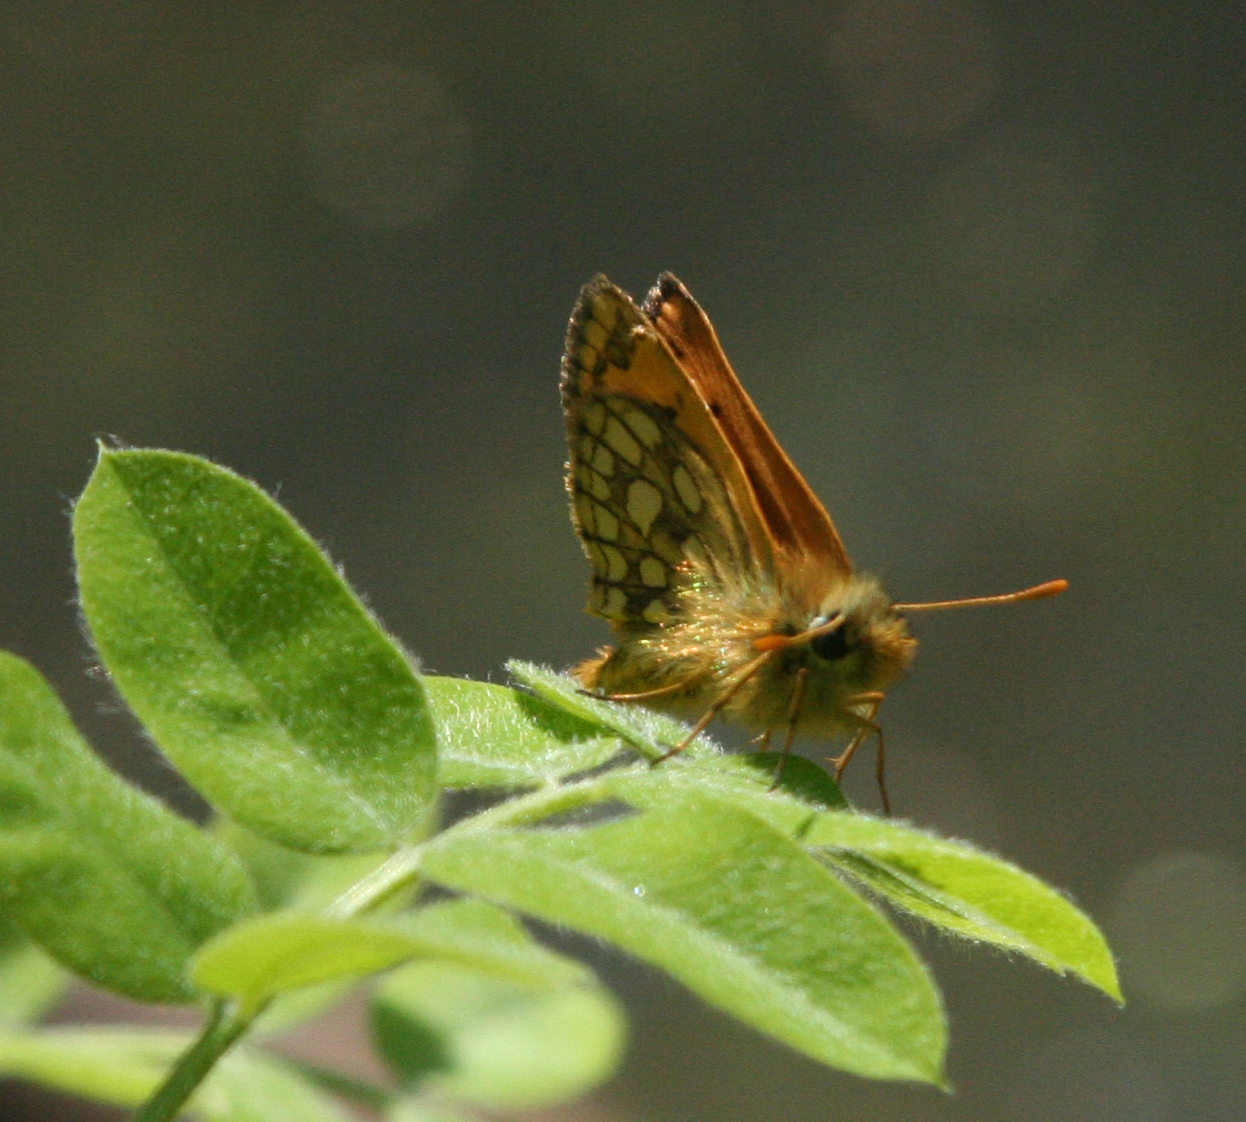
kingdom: Animalia
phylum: Arthropoda
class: Insecta
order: Lepidoptera
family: Hesperiidae
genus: Carterocephalus
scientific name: Carterocephalus silvicola
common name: Northern chequered skipper
